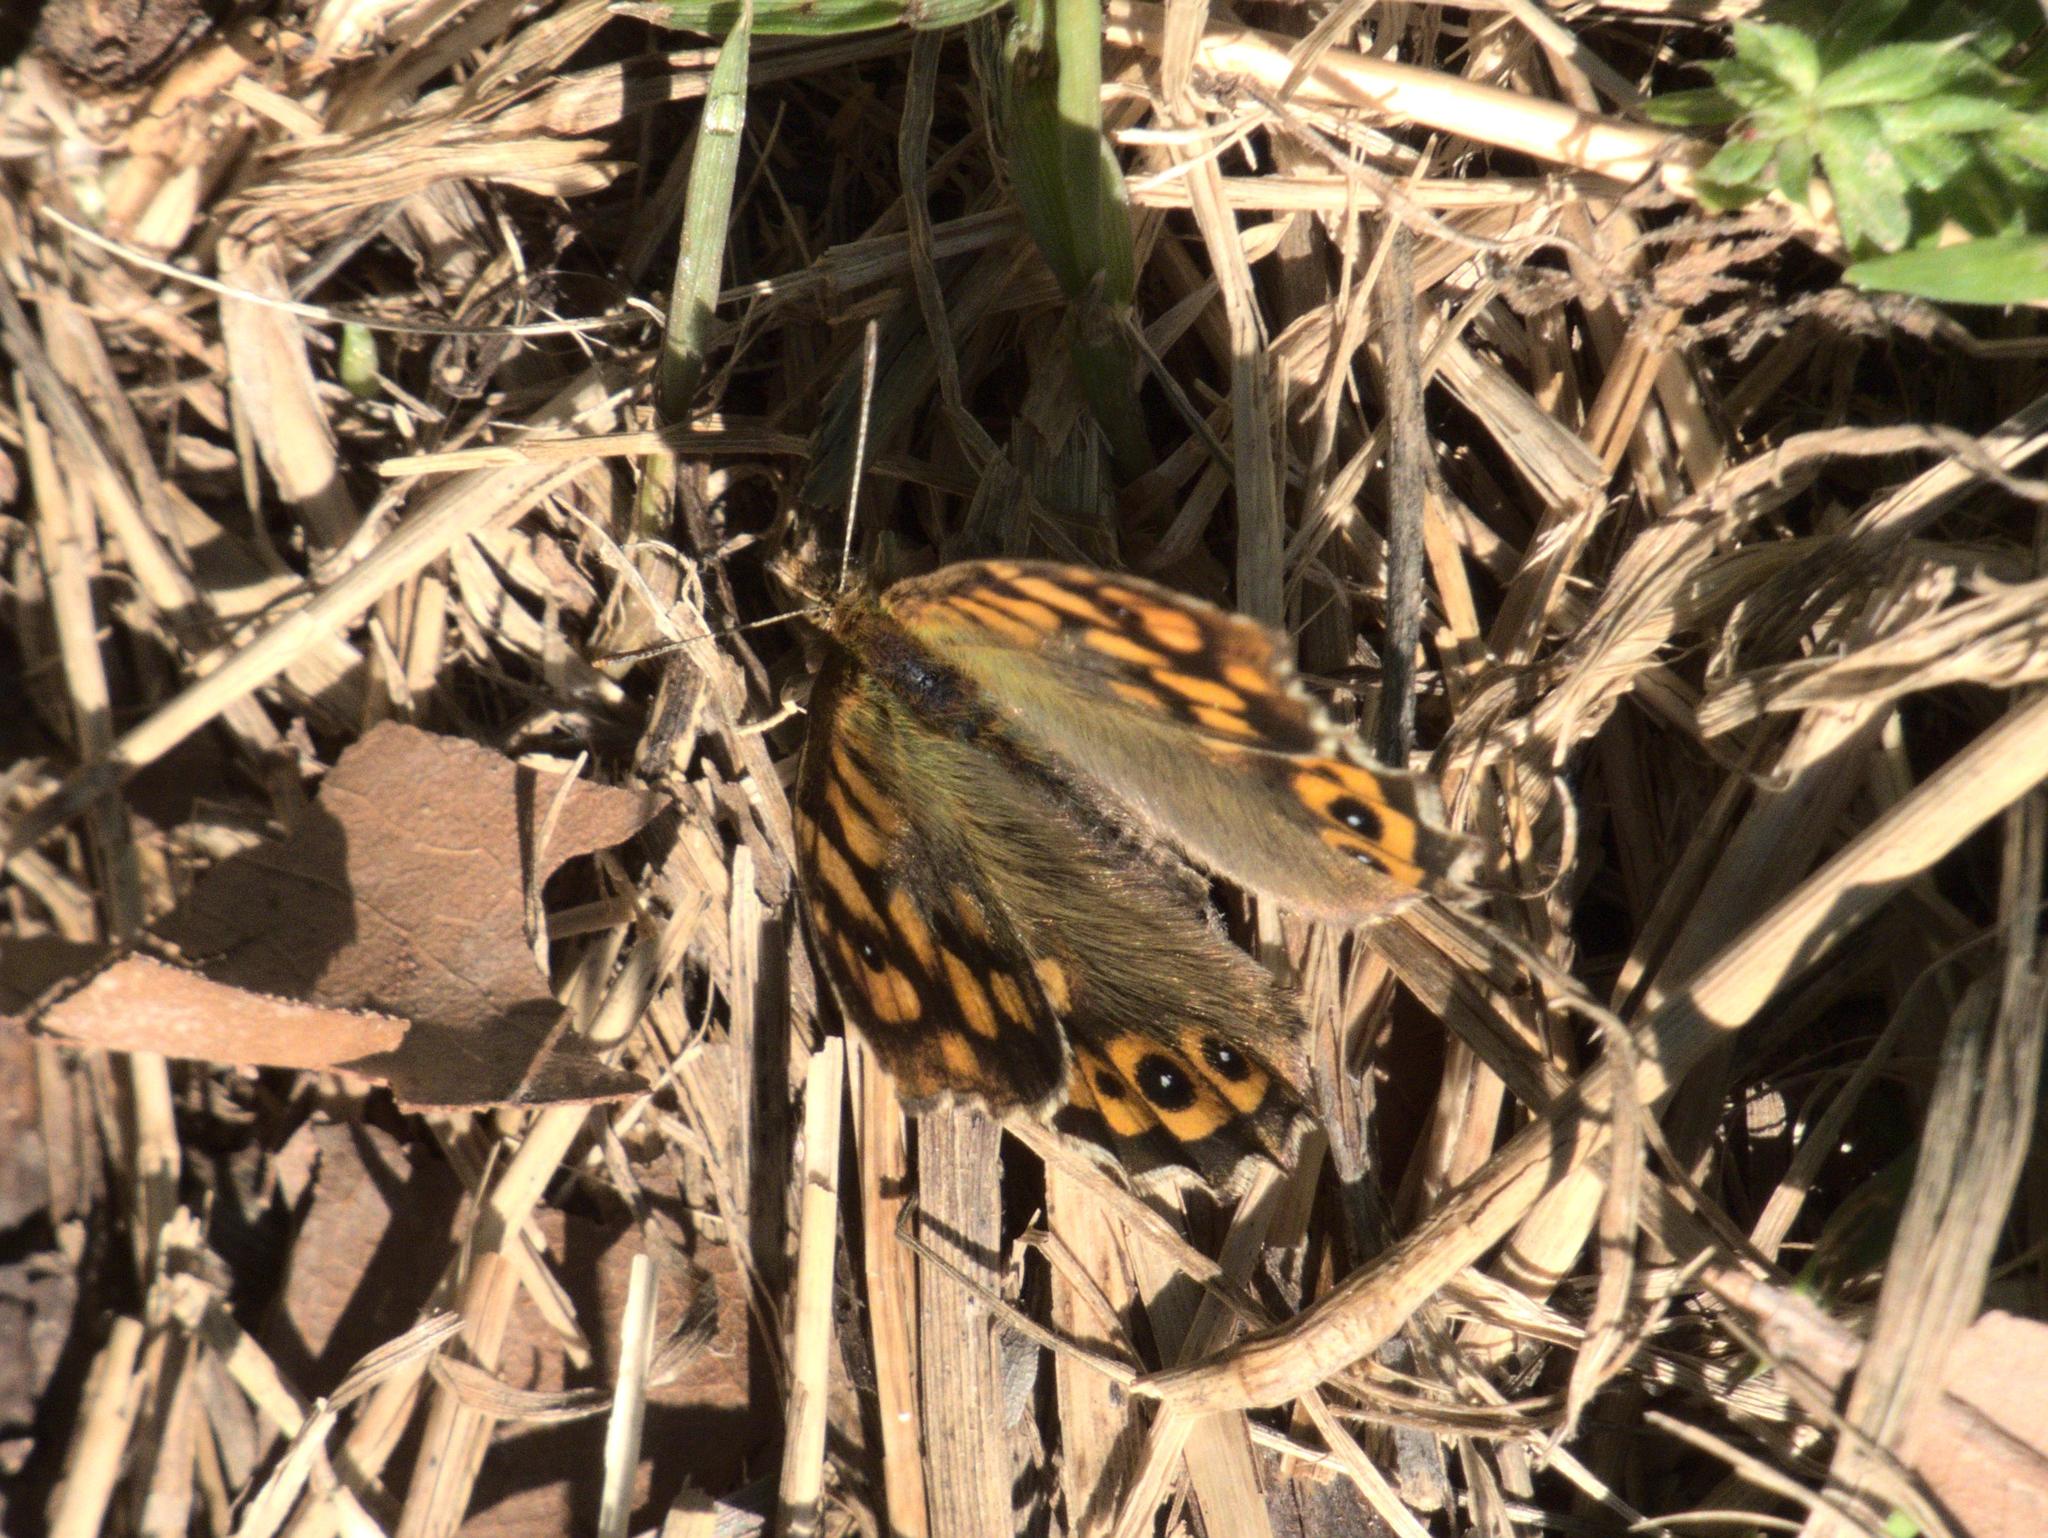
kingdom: Animalia
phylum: Arthropoda
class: Insecta
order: Lepidoptera
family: Nymphalidae
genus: Pararge
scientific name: Pararge aegeria
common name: Speckled wood
